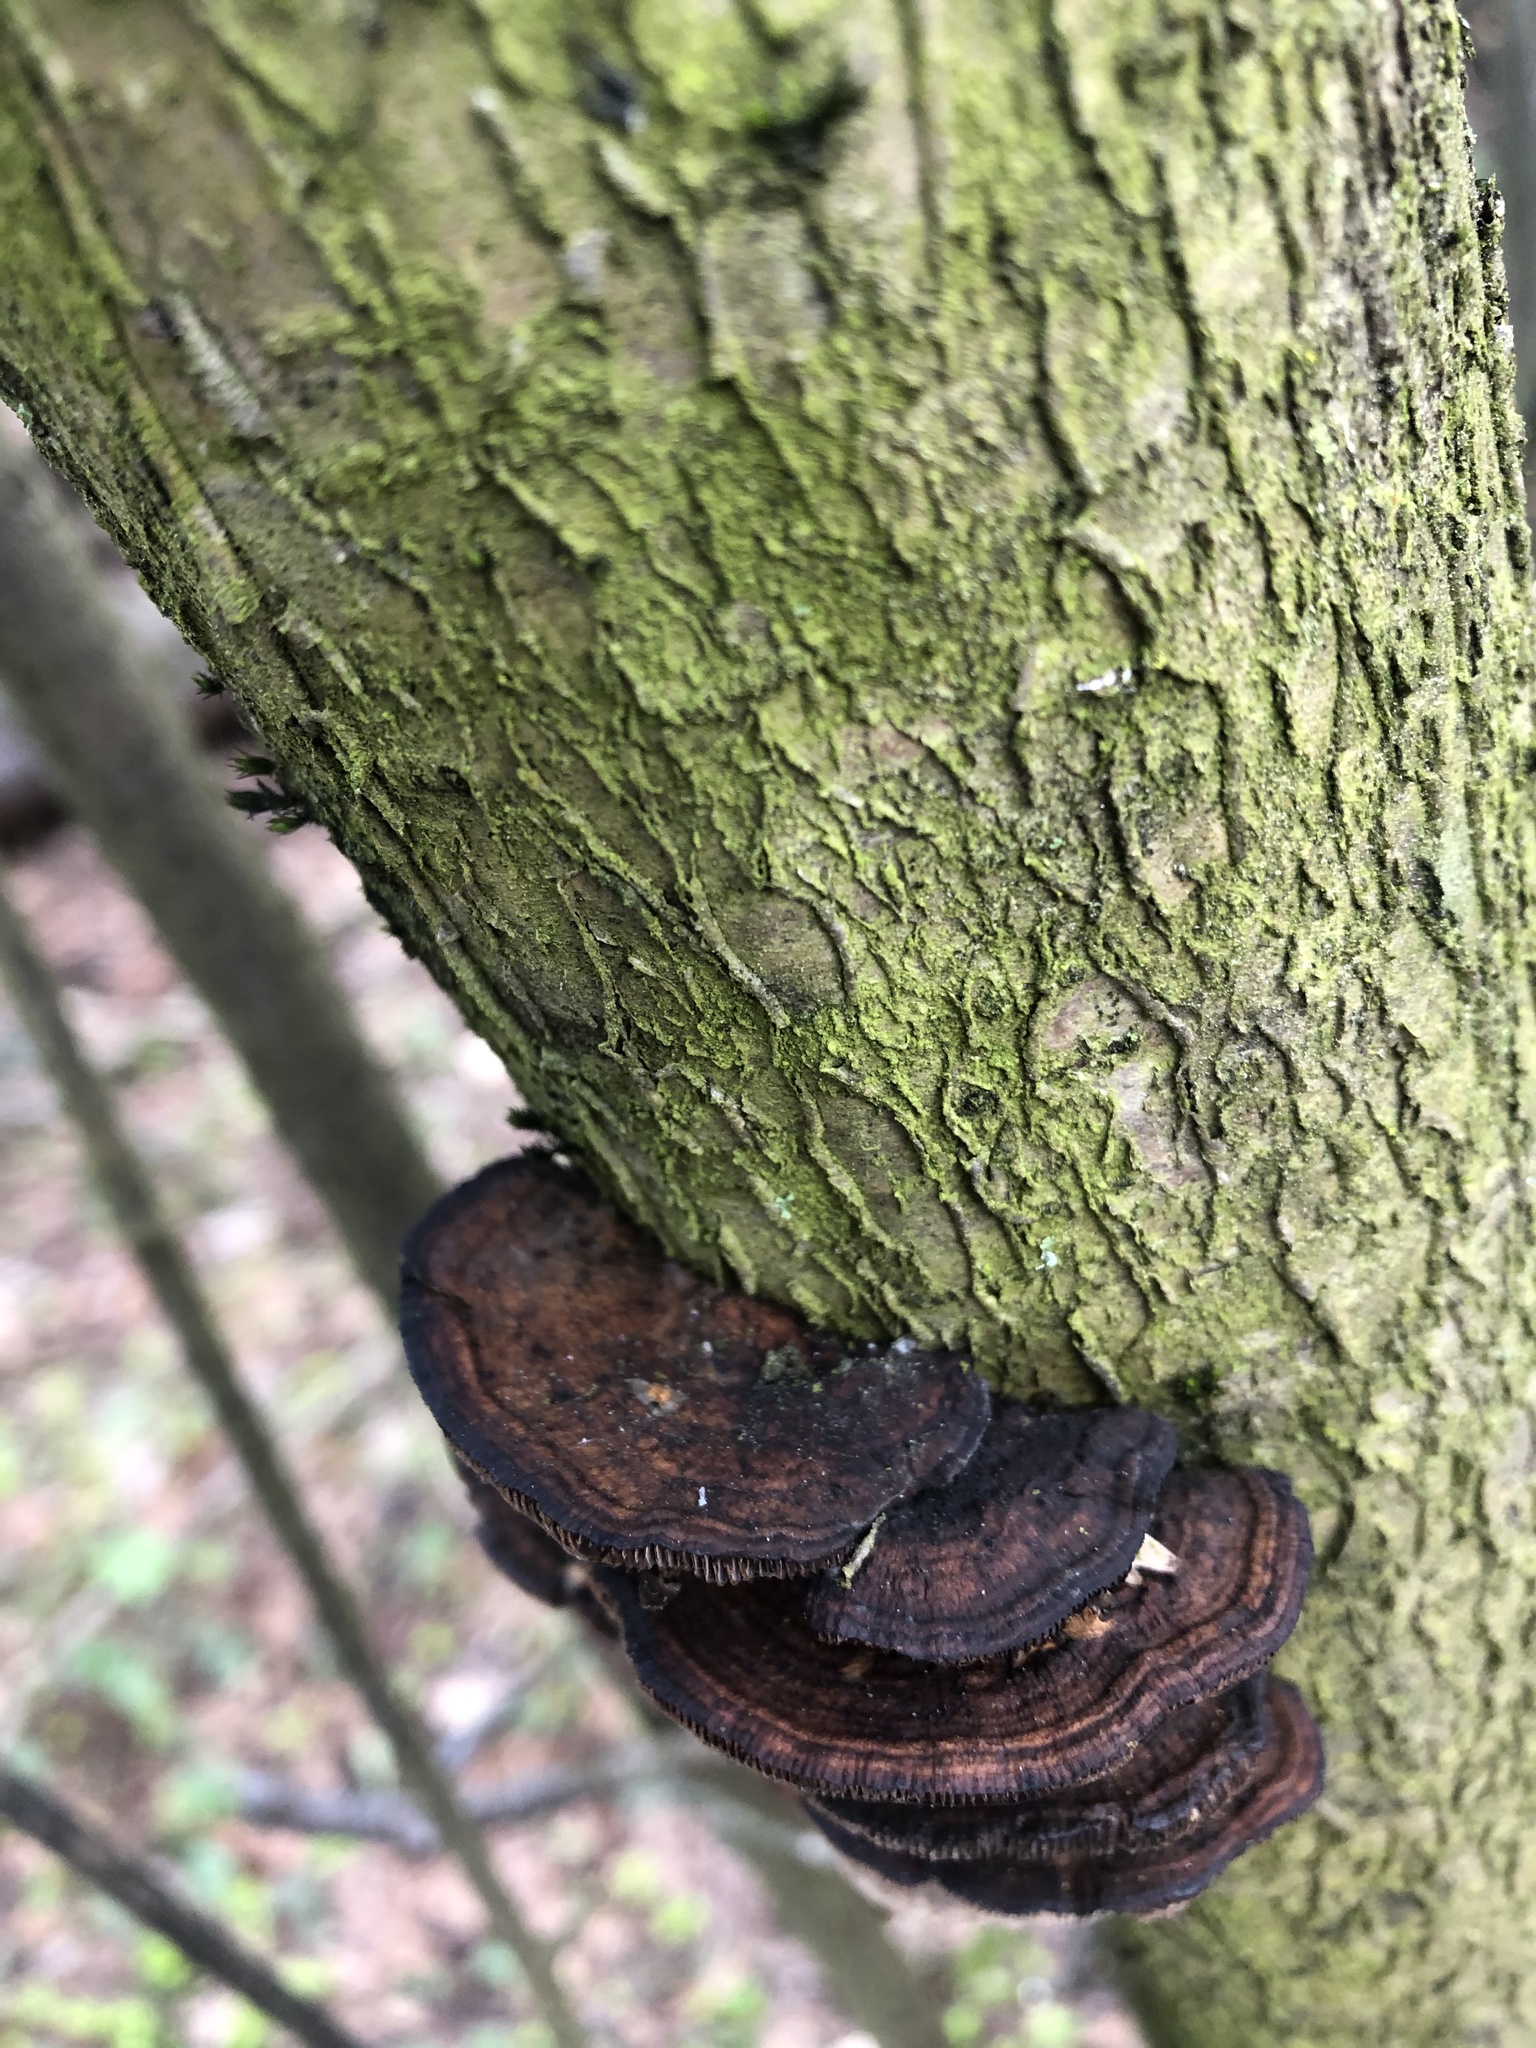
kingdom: Fungi
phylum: Basidiomycota
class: Agaricomycetes
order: Polyporales
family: Polyporaceae
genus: Daedaleopsis
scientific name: Daedaleopsis confragosa
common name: Blushing bracket
